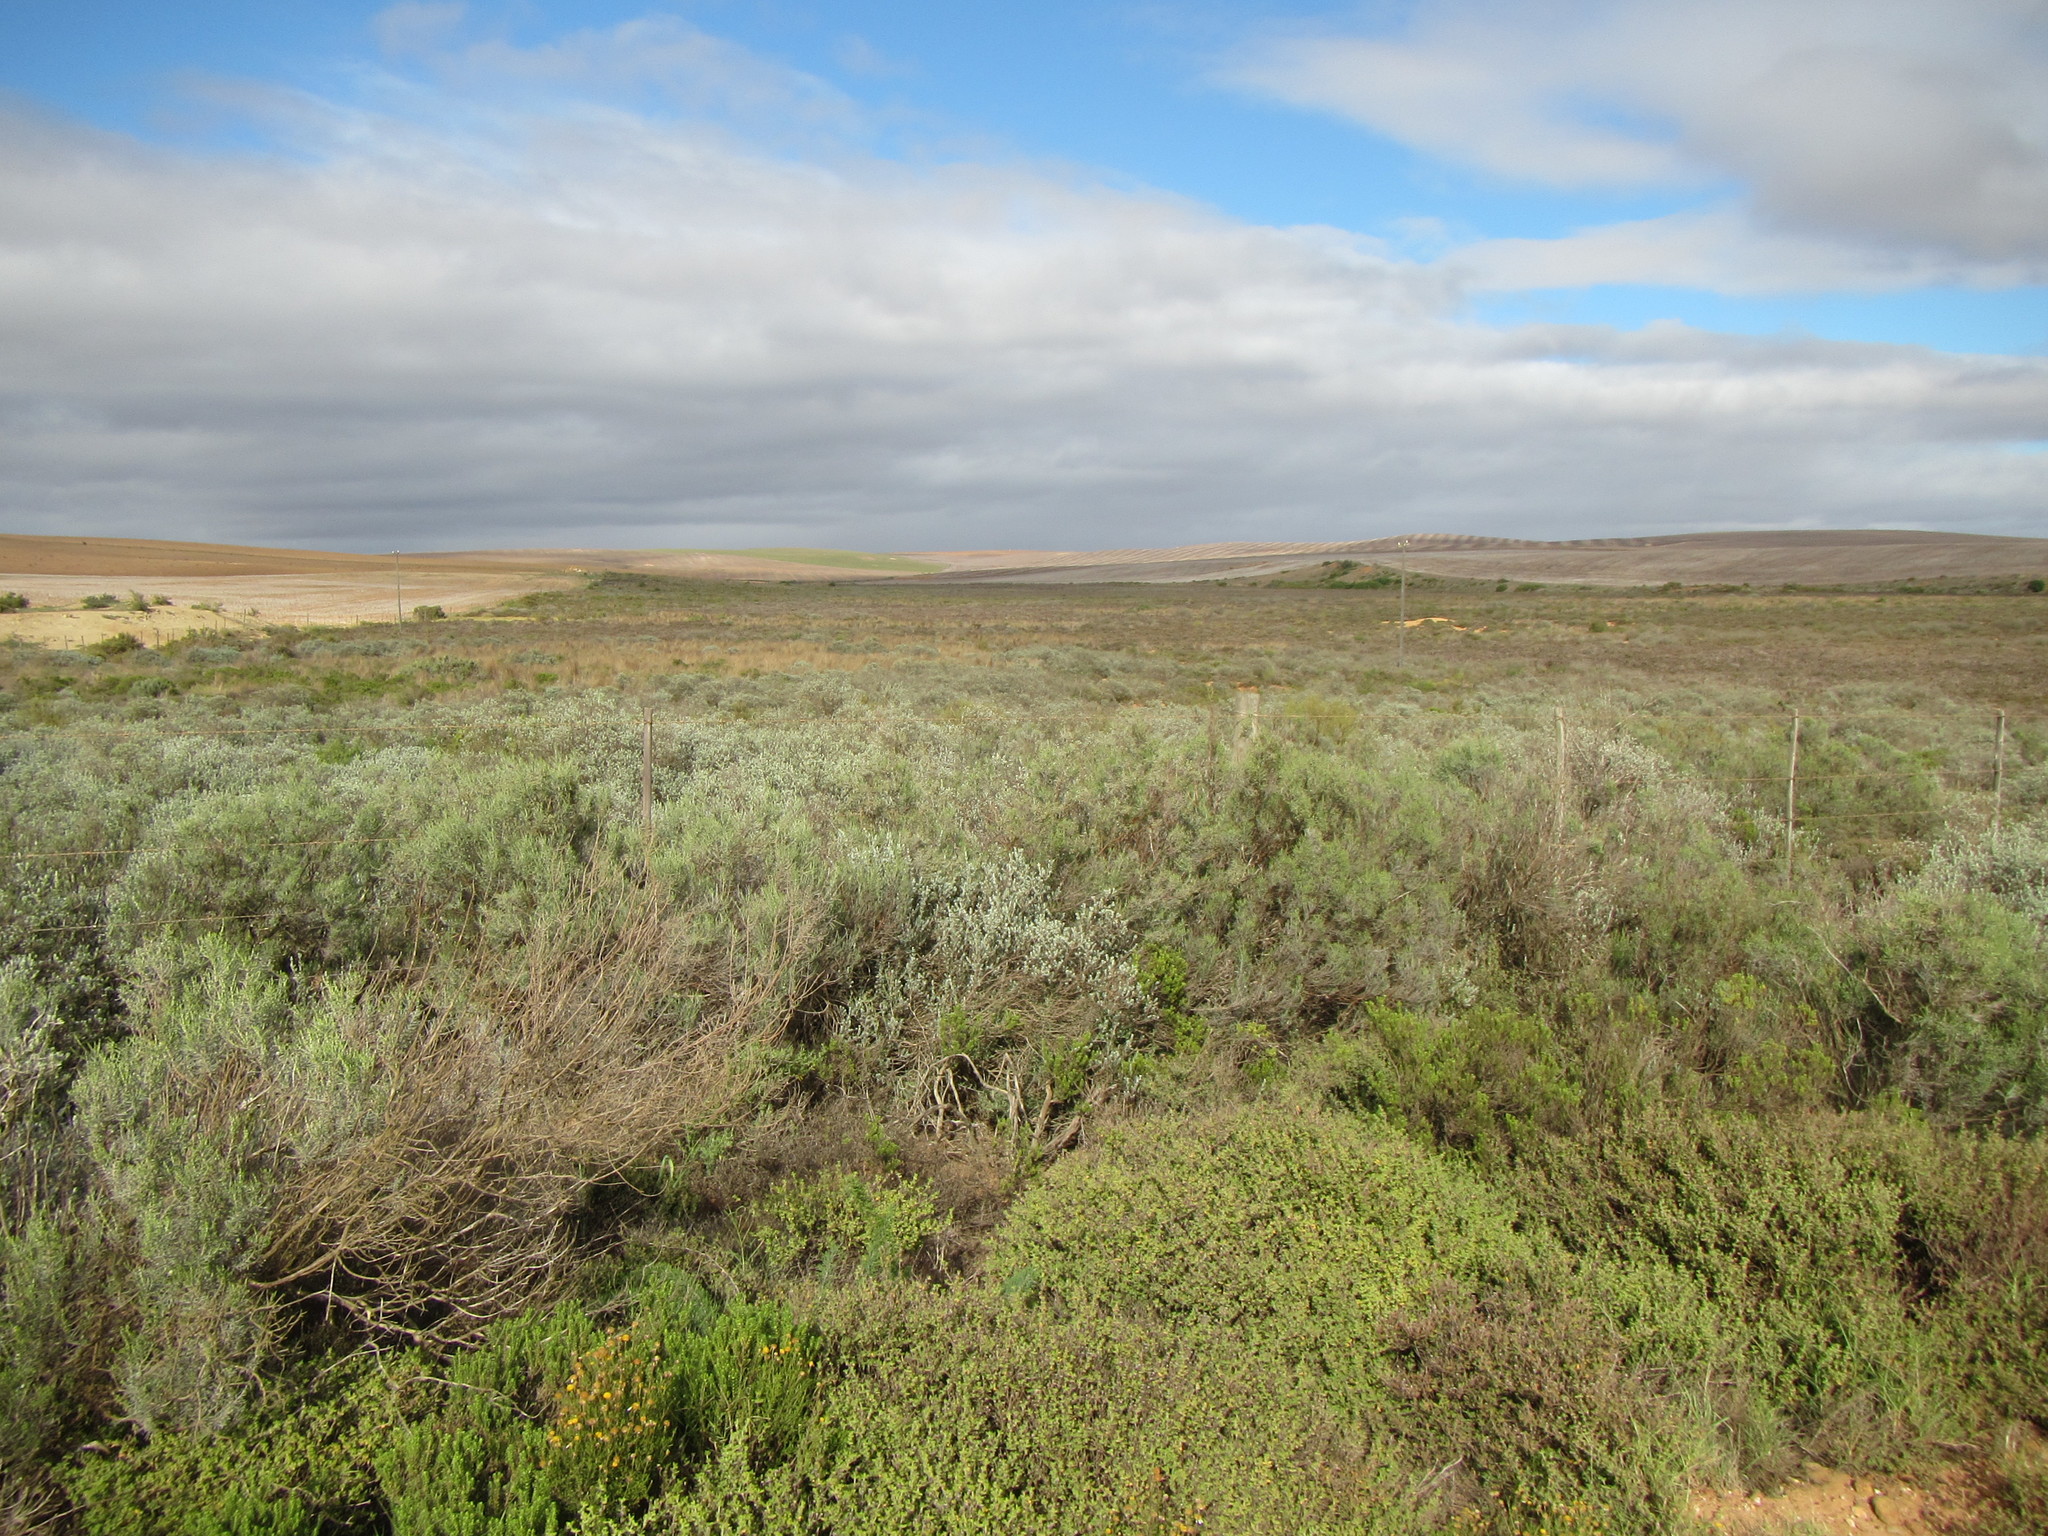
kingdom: Plantae
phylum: Tracheophyta
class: Magnoliopsida
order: Asterales
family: Asteraceae
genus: Dicerothamnus
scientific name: Dicerothamnus rhinocerotis
